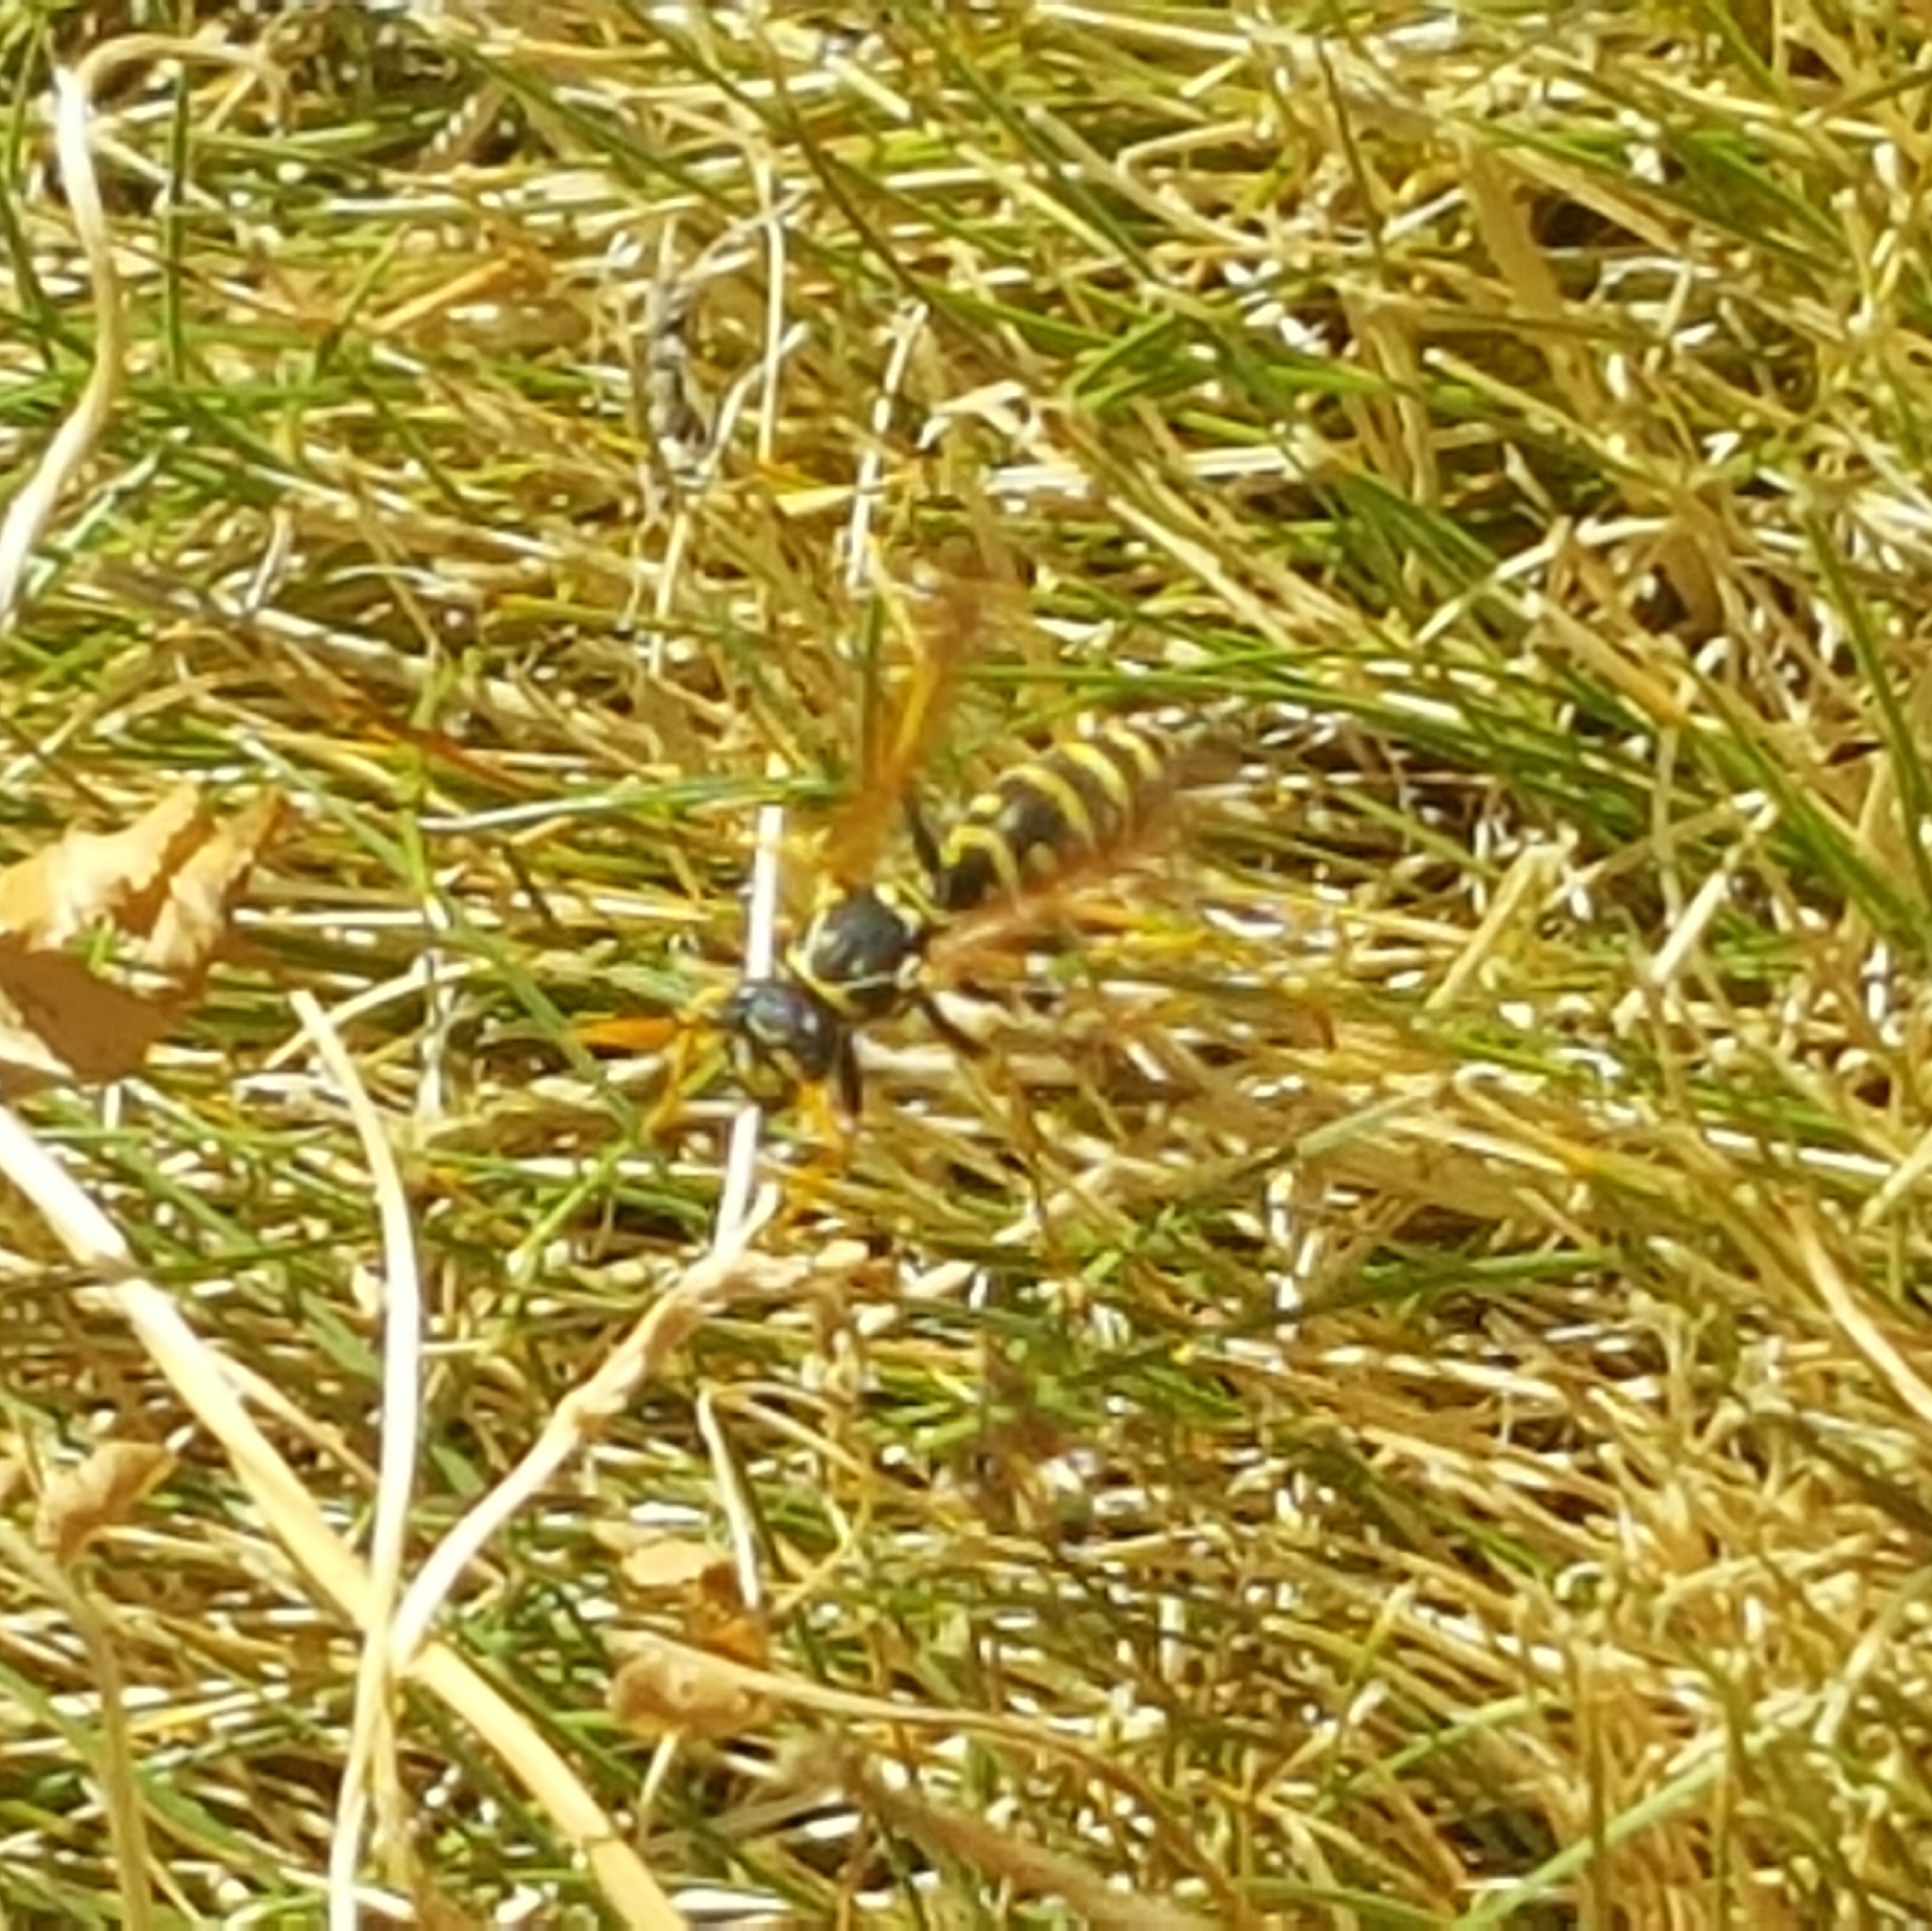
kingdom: Animalia
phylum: Arthropoda
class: Insecta
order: Hymenoptera
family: Eumenidae
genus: Polistes
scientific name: Polistes dominula
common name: Paper wasp
